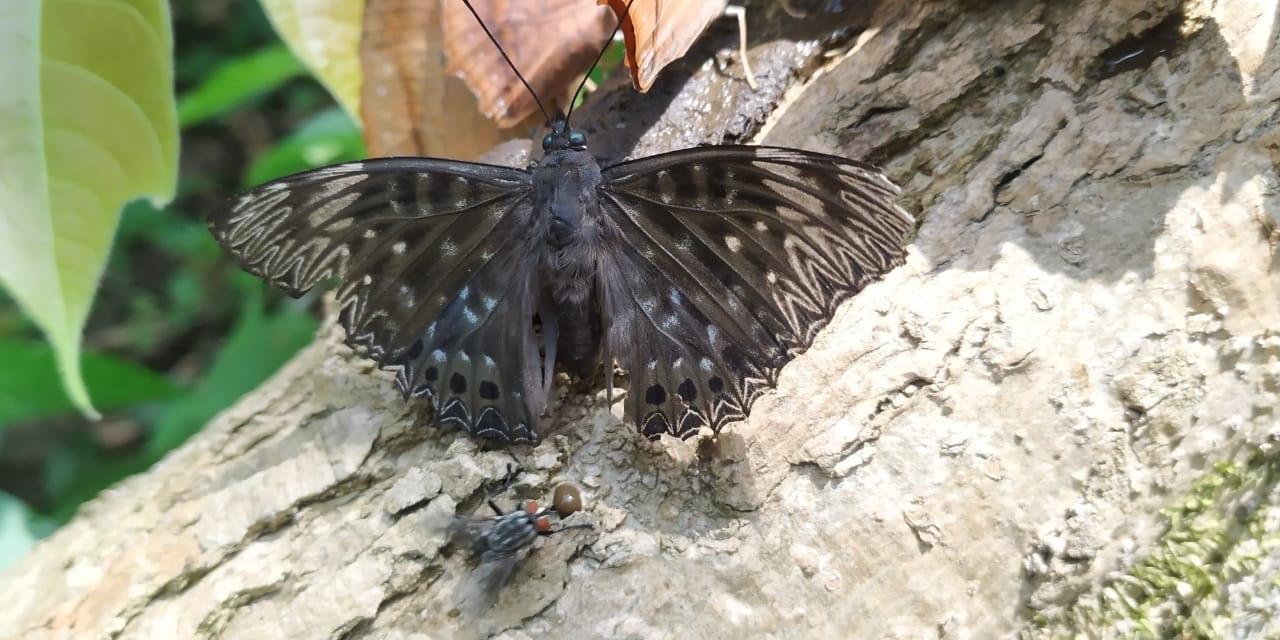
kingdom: Animalia
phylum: Arthropoda
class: Insecta
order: Lepidoptera
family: Nymphalidae
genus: Dichorragia
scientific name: Dichorragia nesimachus
